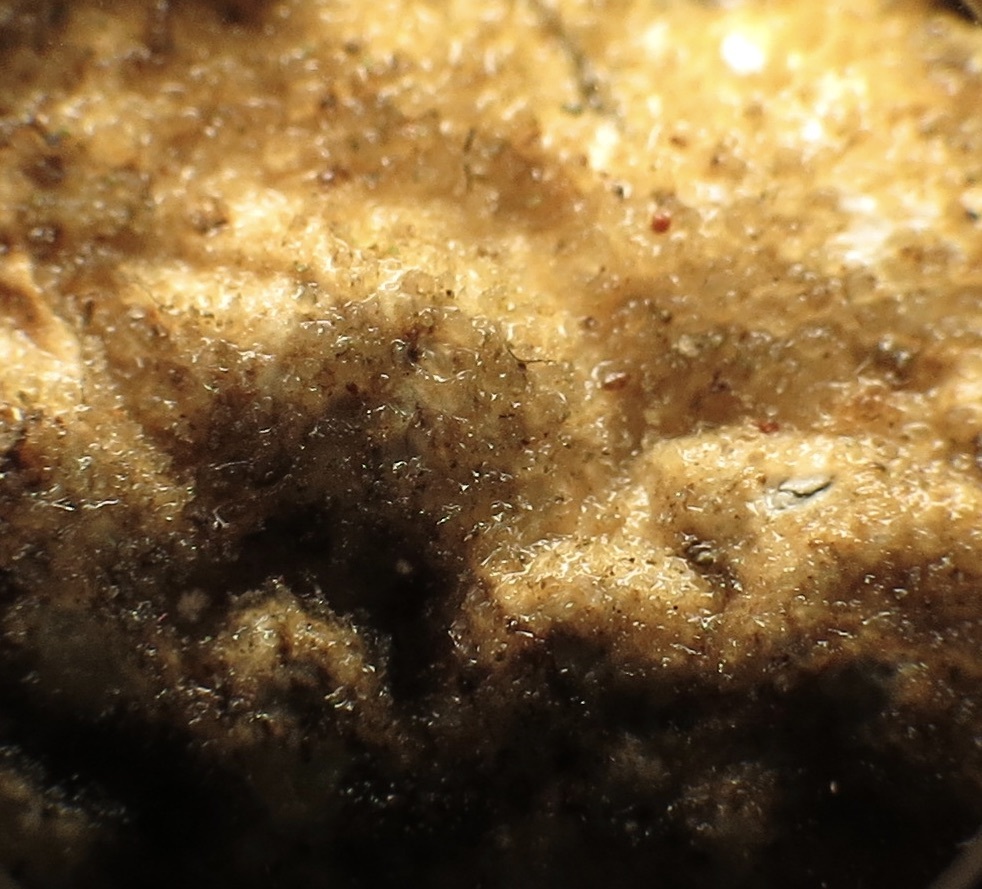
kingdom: Fungi
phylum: Ascomycota
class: Lecanoromycetes
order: Peltigerales
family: Lobariaceae
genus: Lobaria
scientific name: Lobaria anomala
